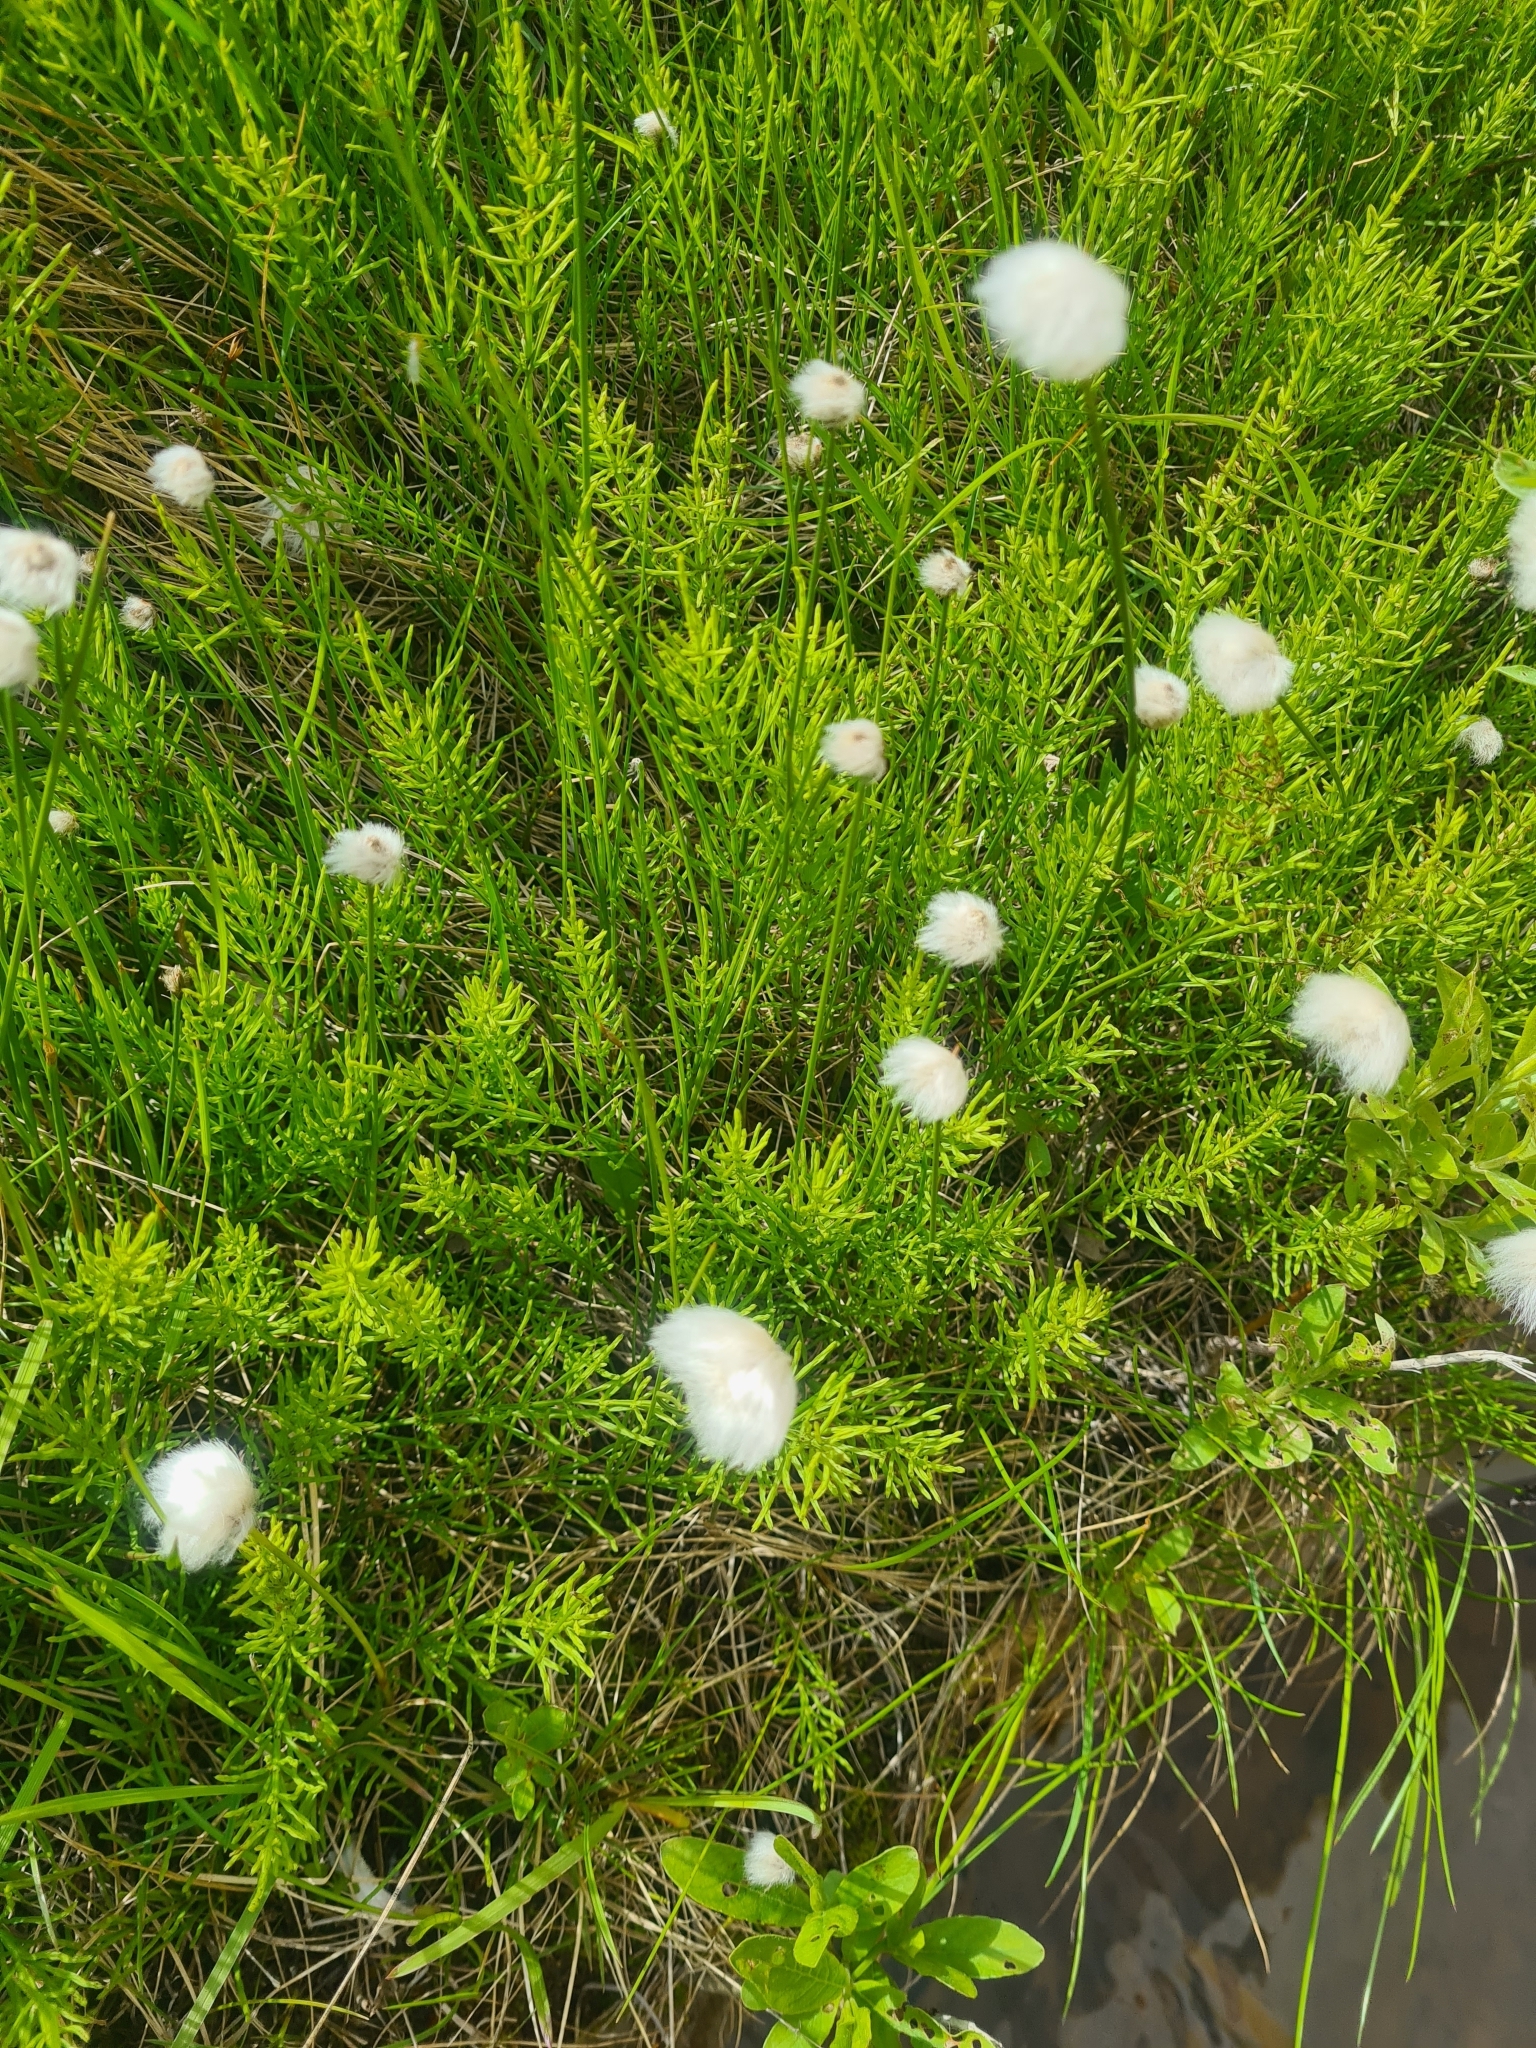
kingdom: Plantae
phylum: Tracheophyta
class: Liliopsida
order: Poales
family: Cyperaceae
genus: Eriophorum
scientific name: Eriophorum scheuchzeri
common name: Scheuchzer's cottongrass
